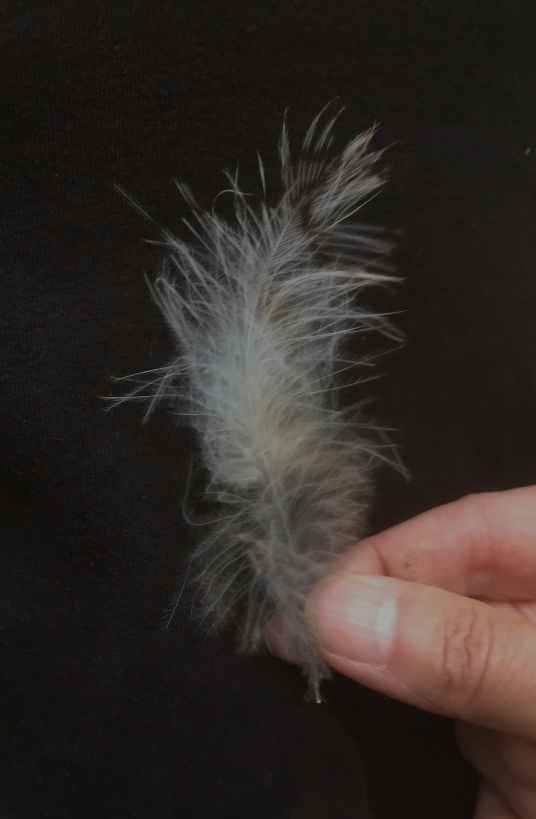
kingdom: Animalia
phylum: Chordata
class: Aves
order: Strigiformes
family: Strigidae
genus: Strix
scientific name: Strix aluco
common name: Tawny owl
